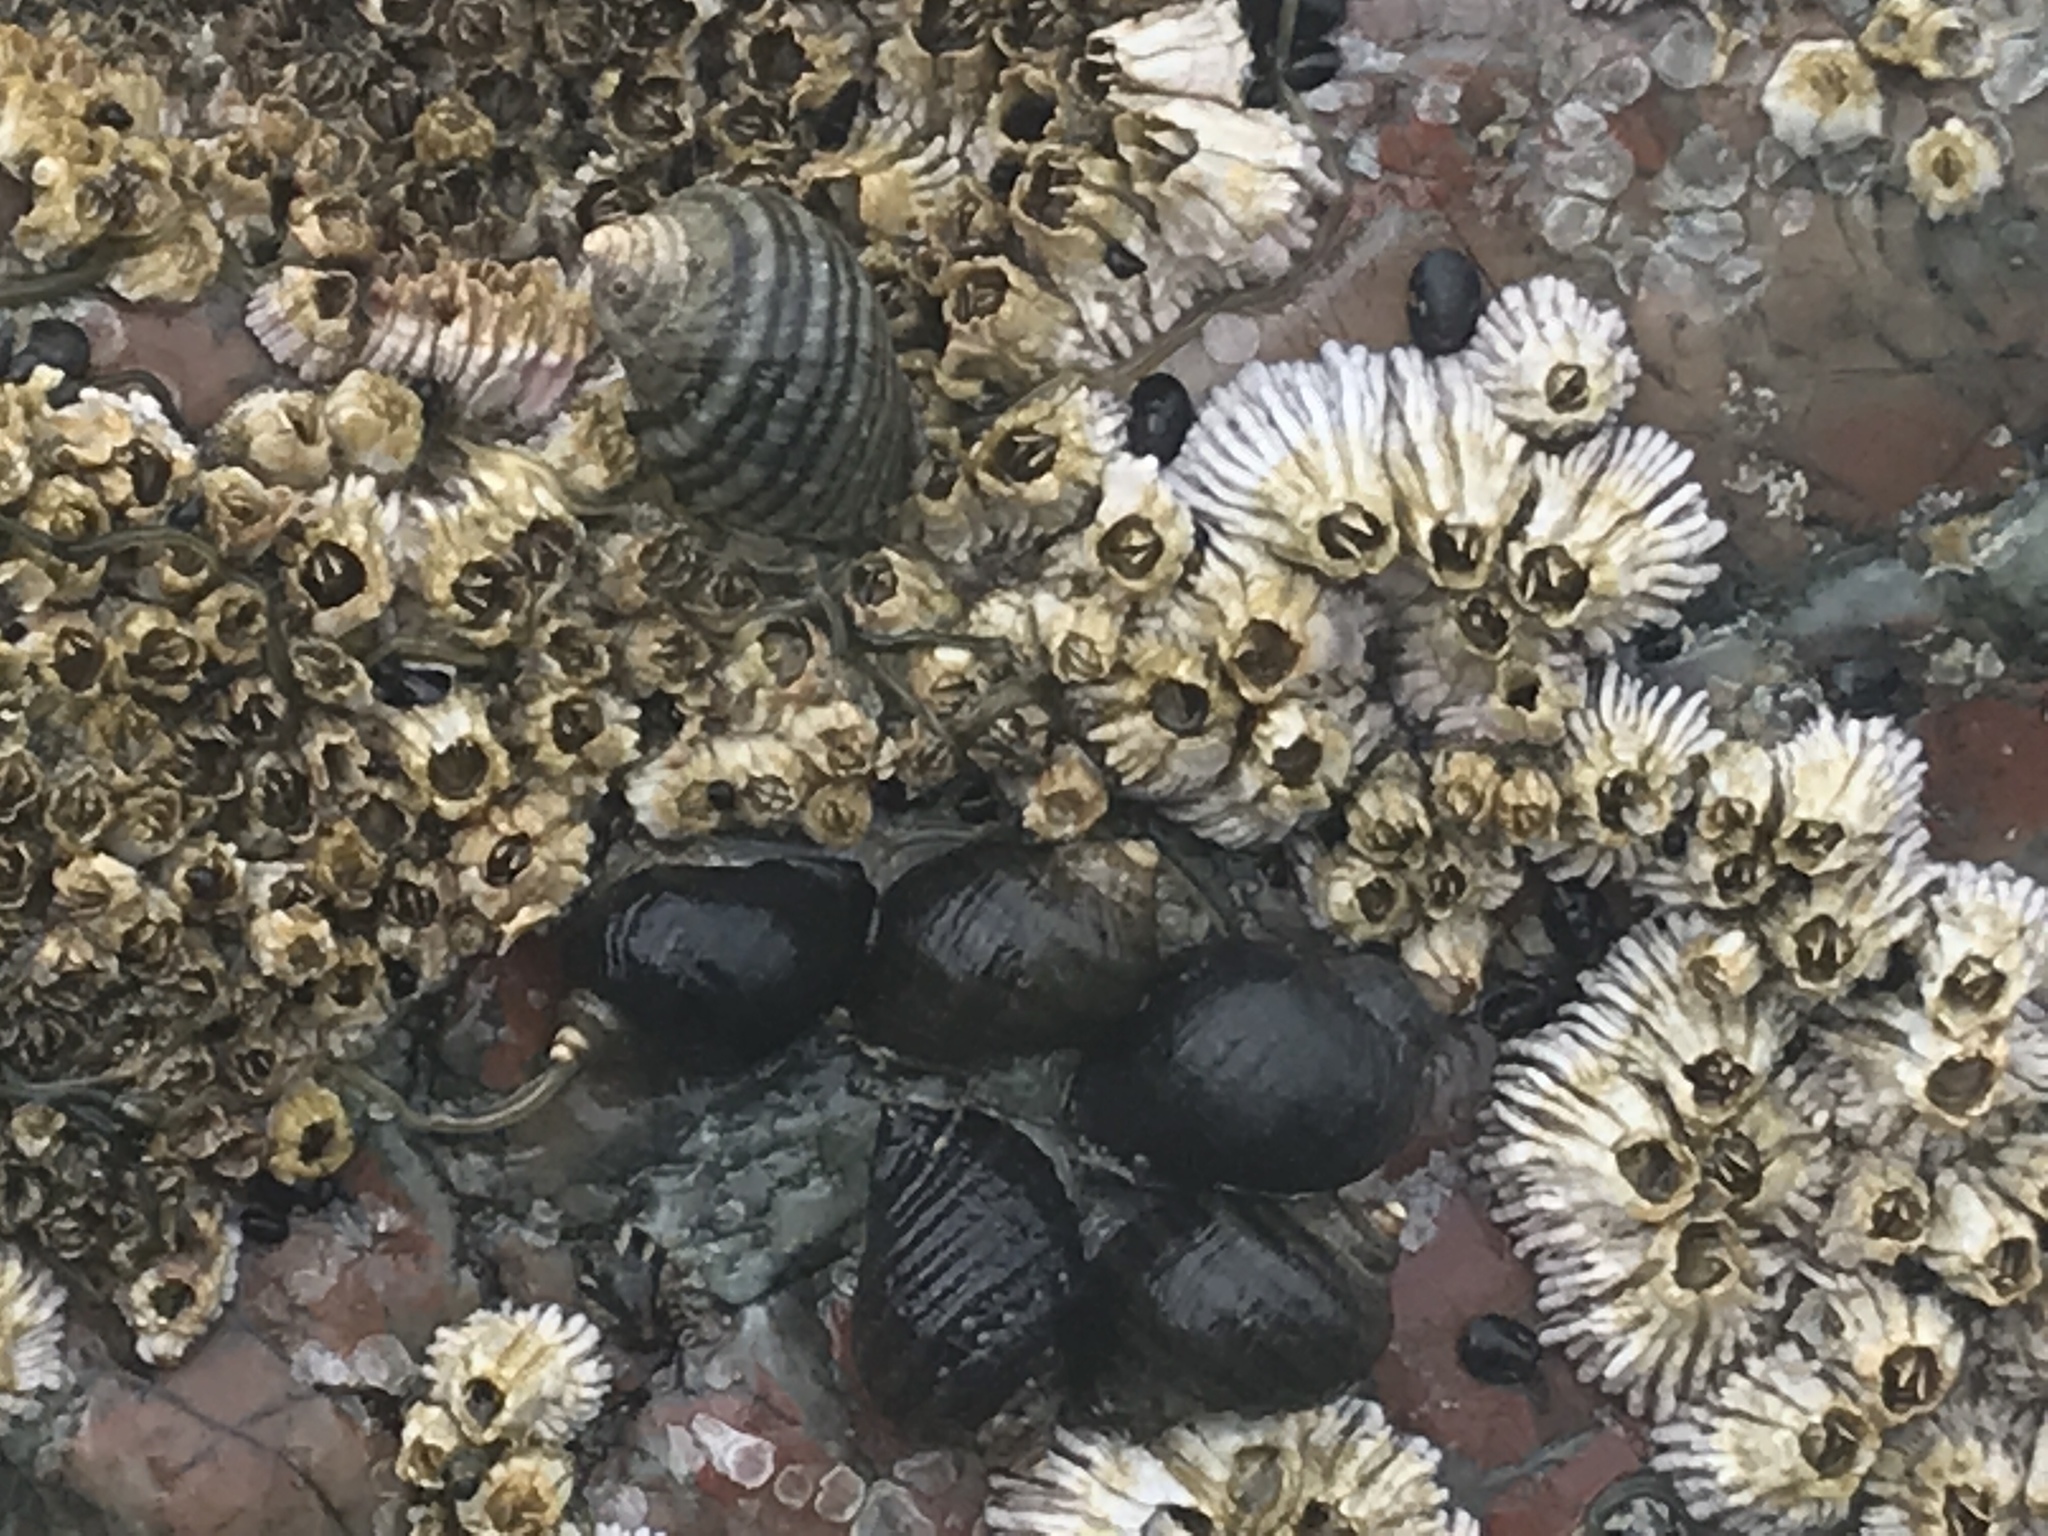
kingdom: Animalia
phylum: Mollusca
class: Gastropoda
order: Neogastropoda
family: Muricidae
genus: Nucella
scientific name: Nucella ostrina
